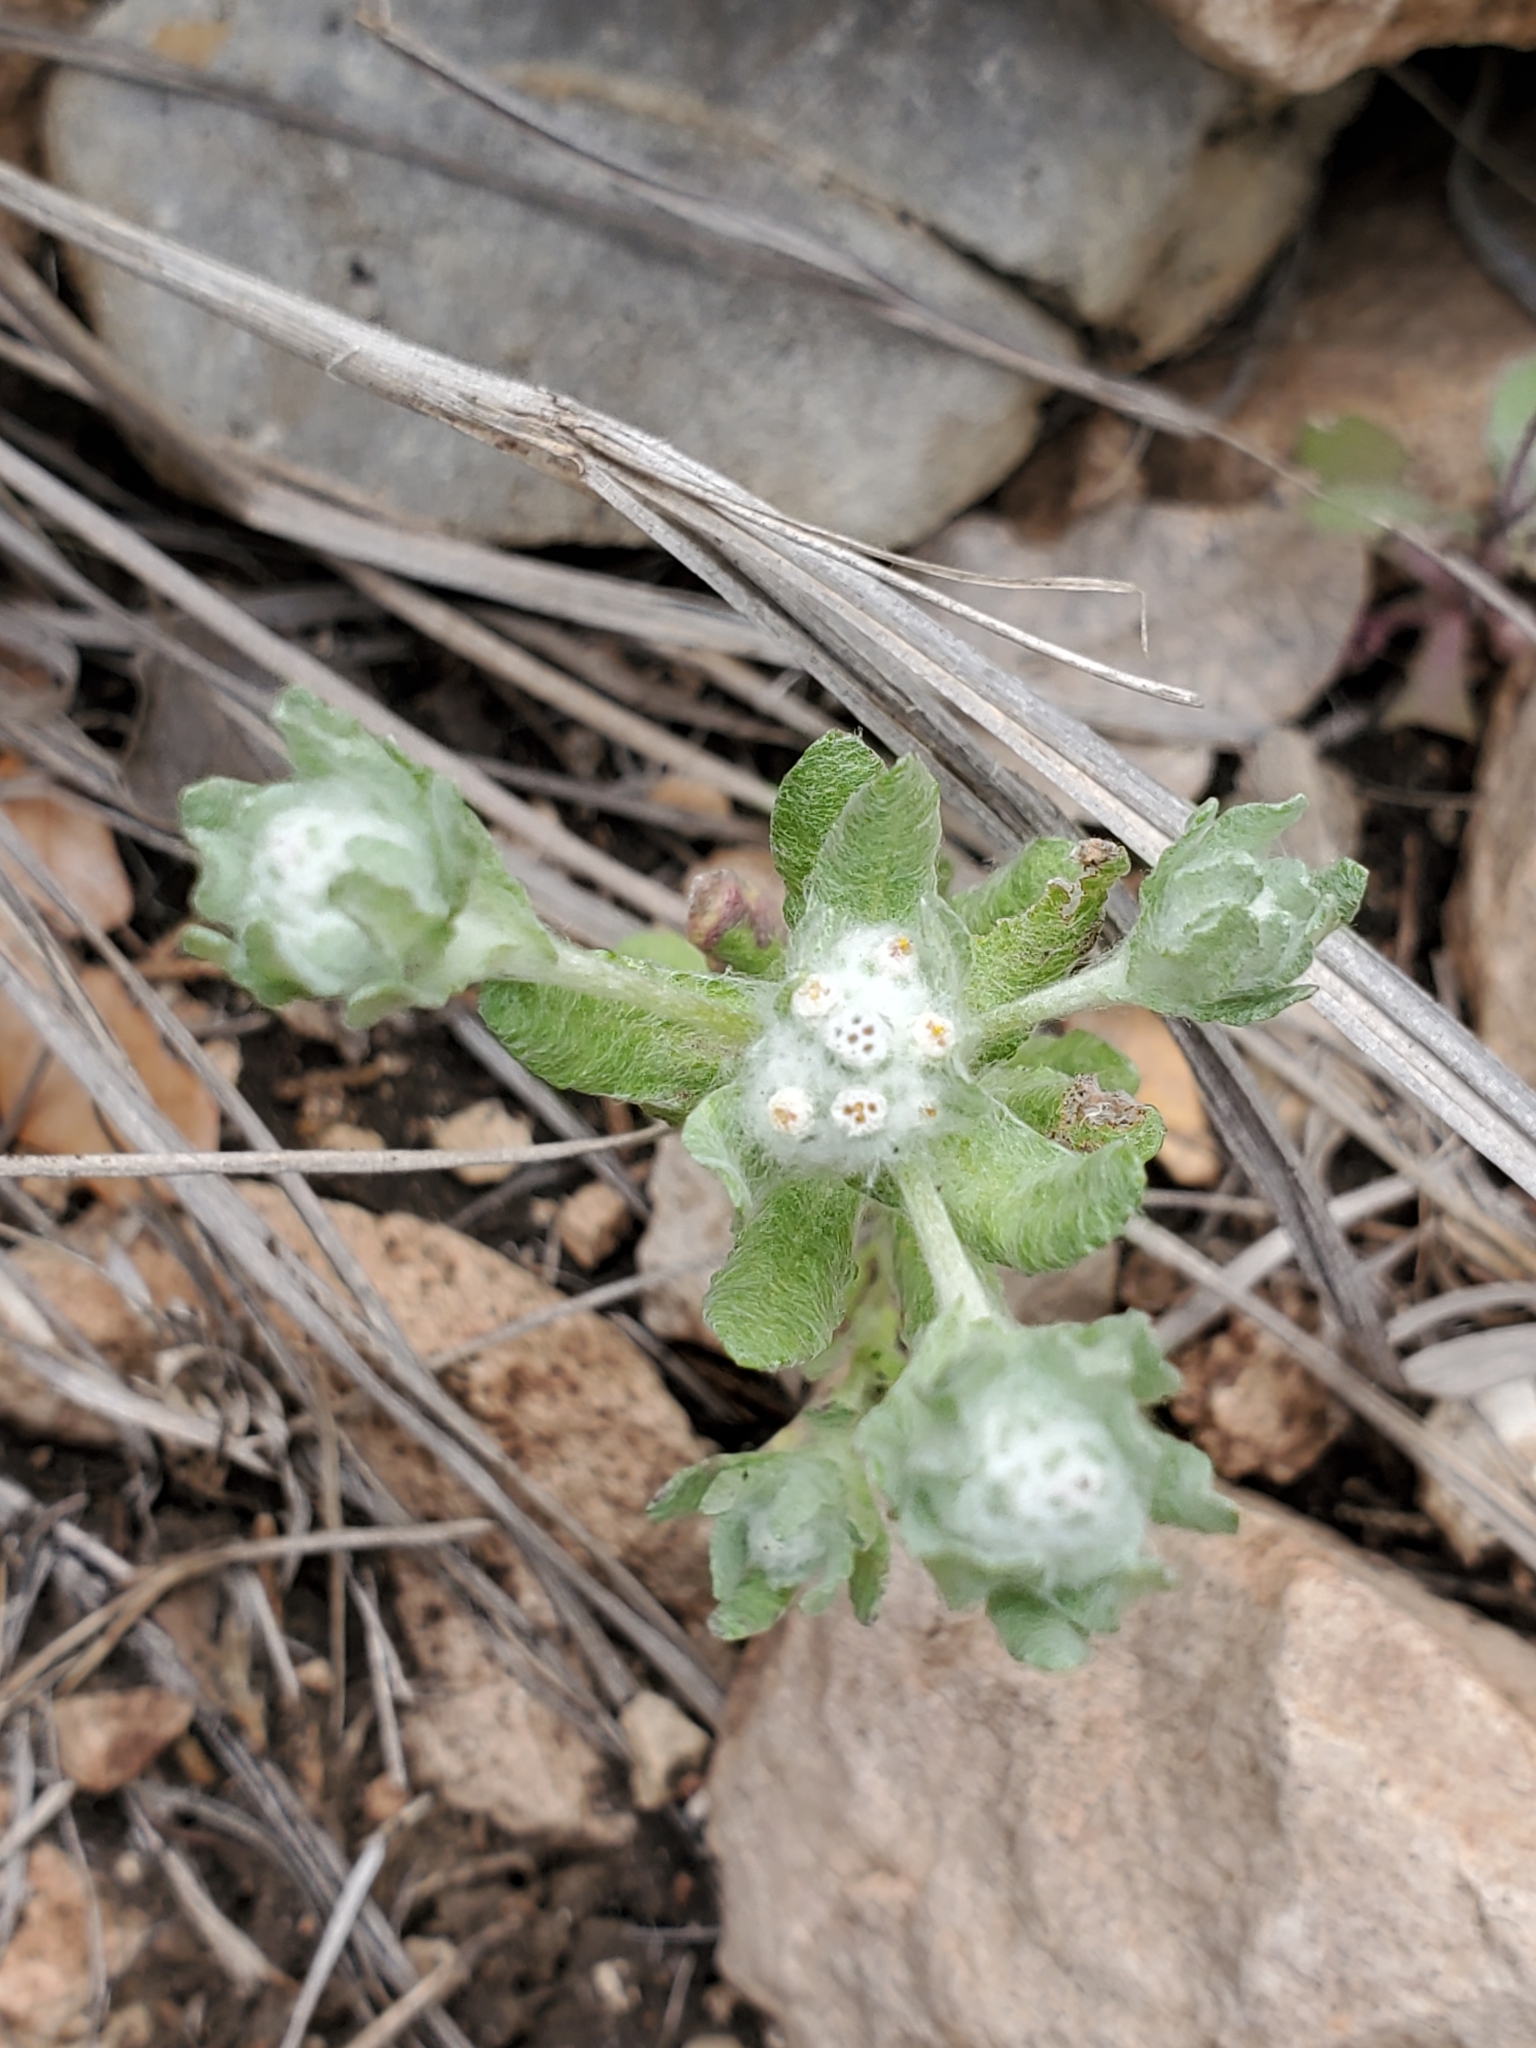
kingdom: Plantae
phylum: Tracheophyta
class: Magnoliopsida
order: Asterales
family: Asteraceae
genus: Diaperia
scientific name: Diaperia verna
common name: Many-stem rabbit-tobacco
